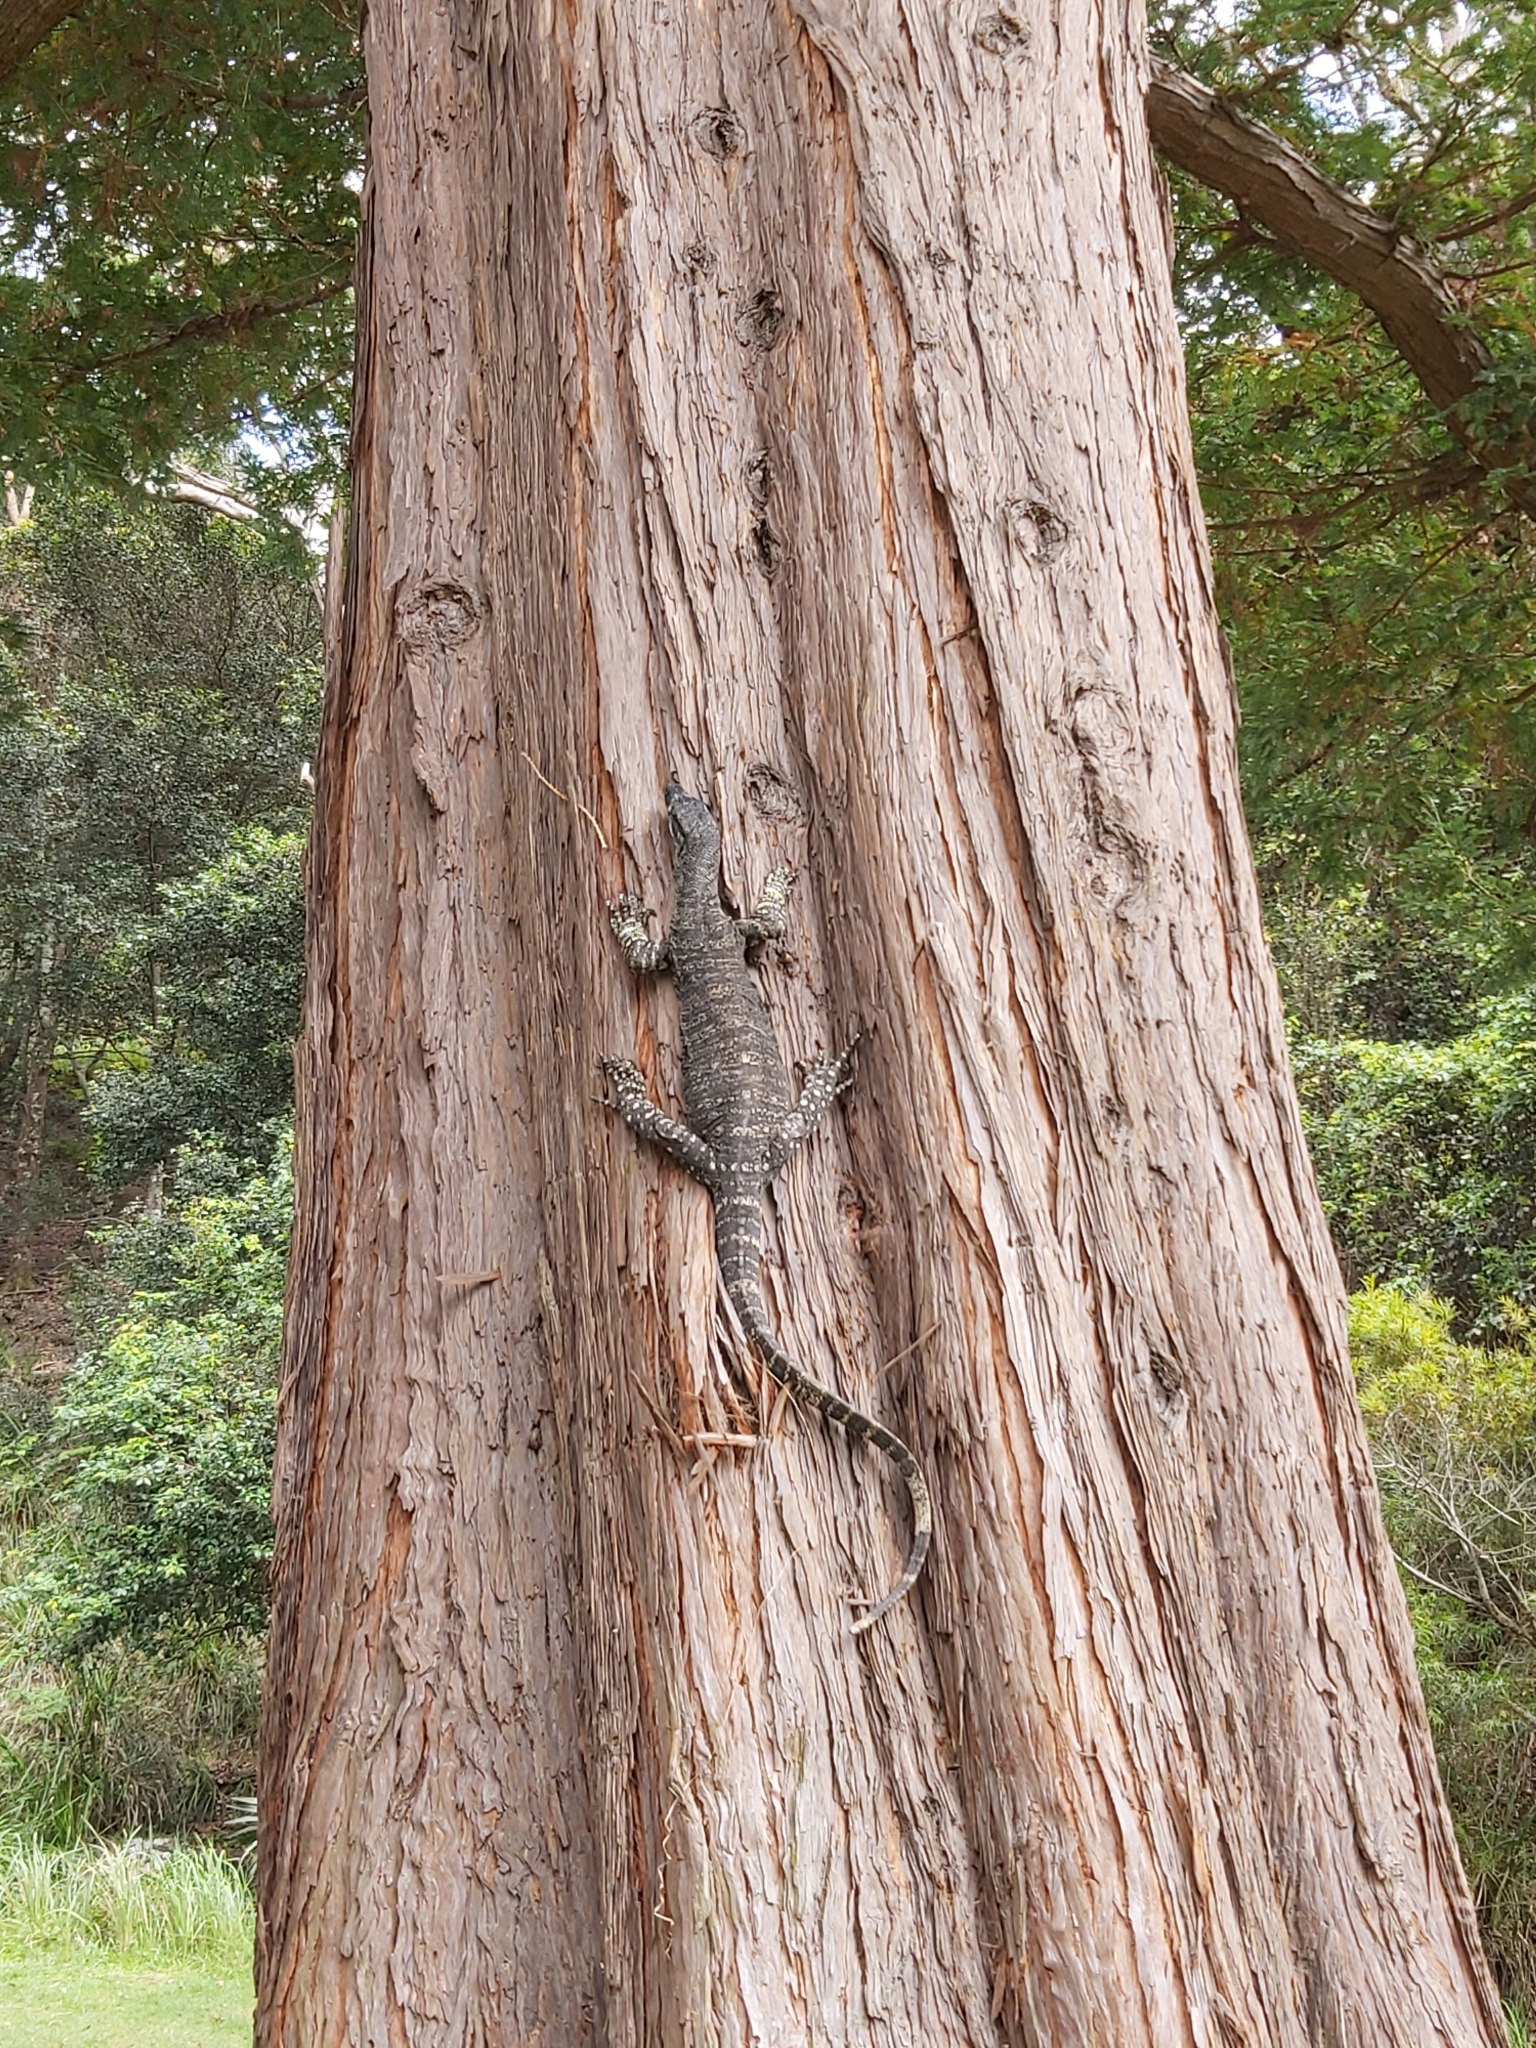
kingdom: Animalia
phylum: Chordata
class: Squamata
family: Varanidae
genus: Varanus
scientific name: Varanus varius
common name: Lace monitor
